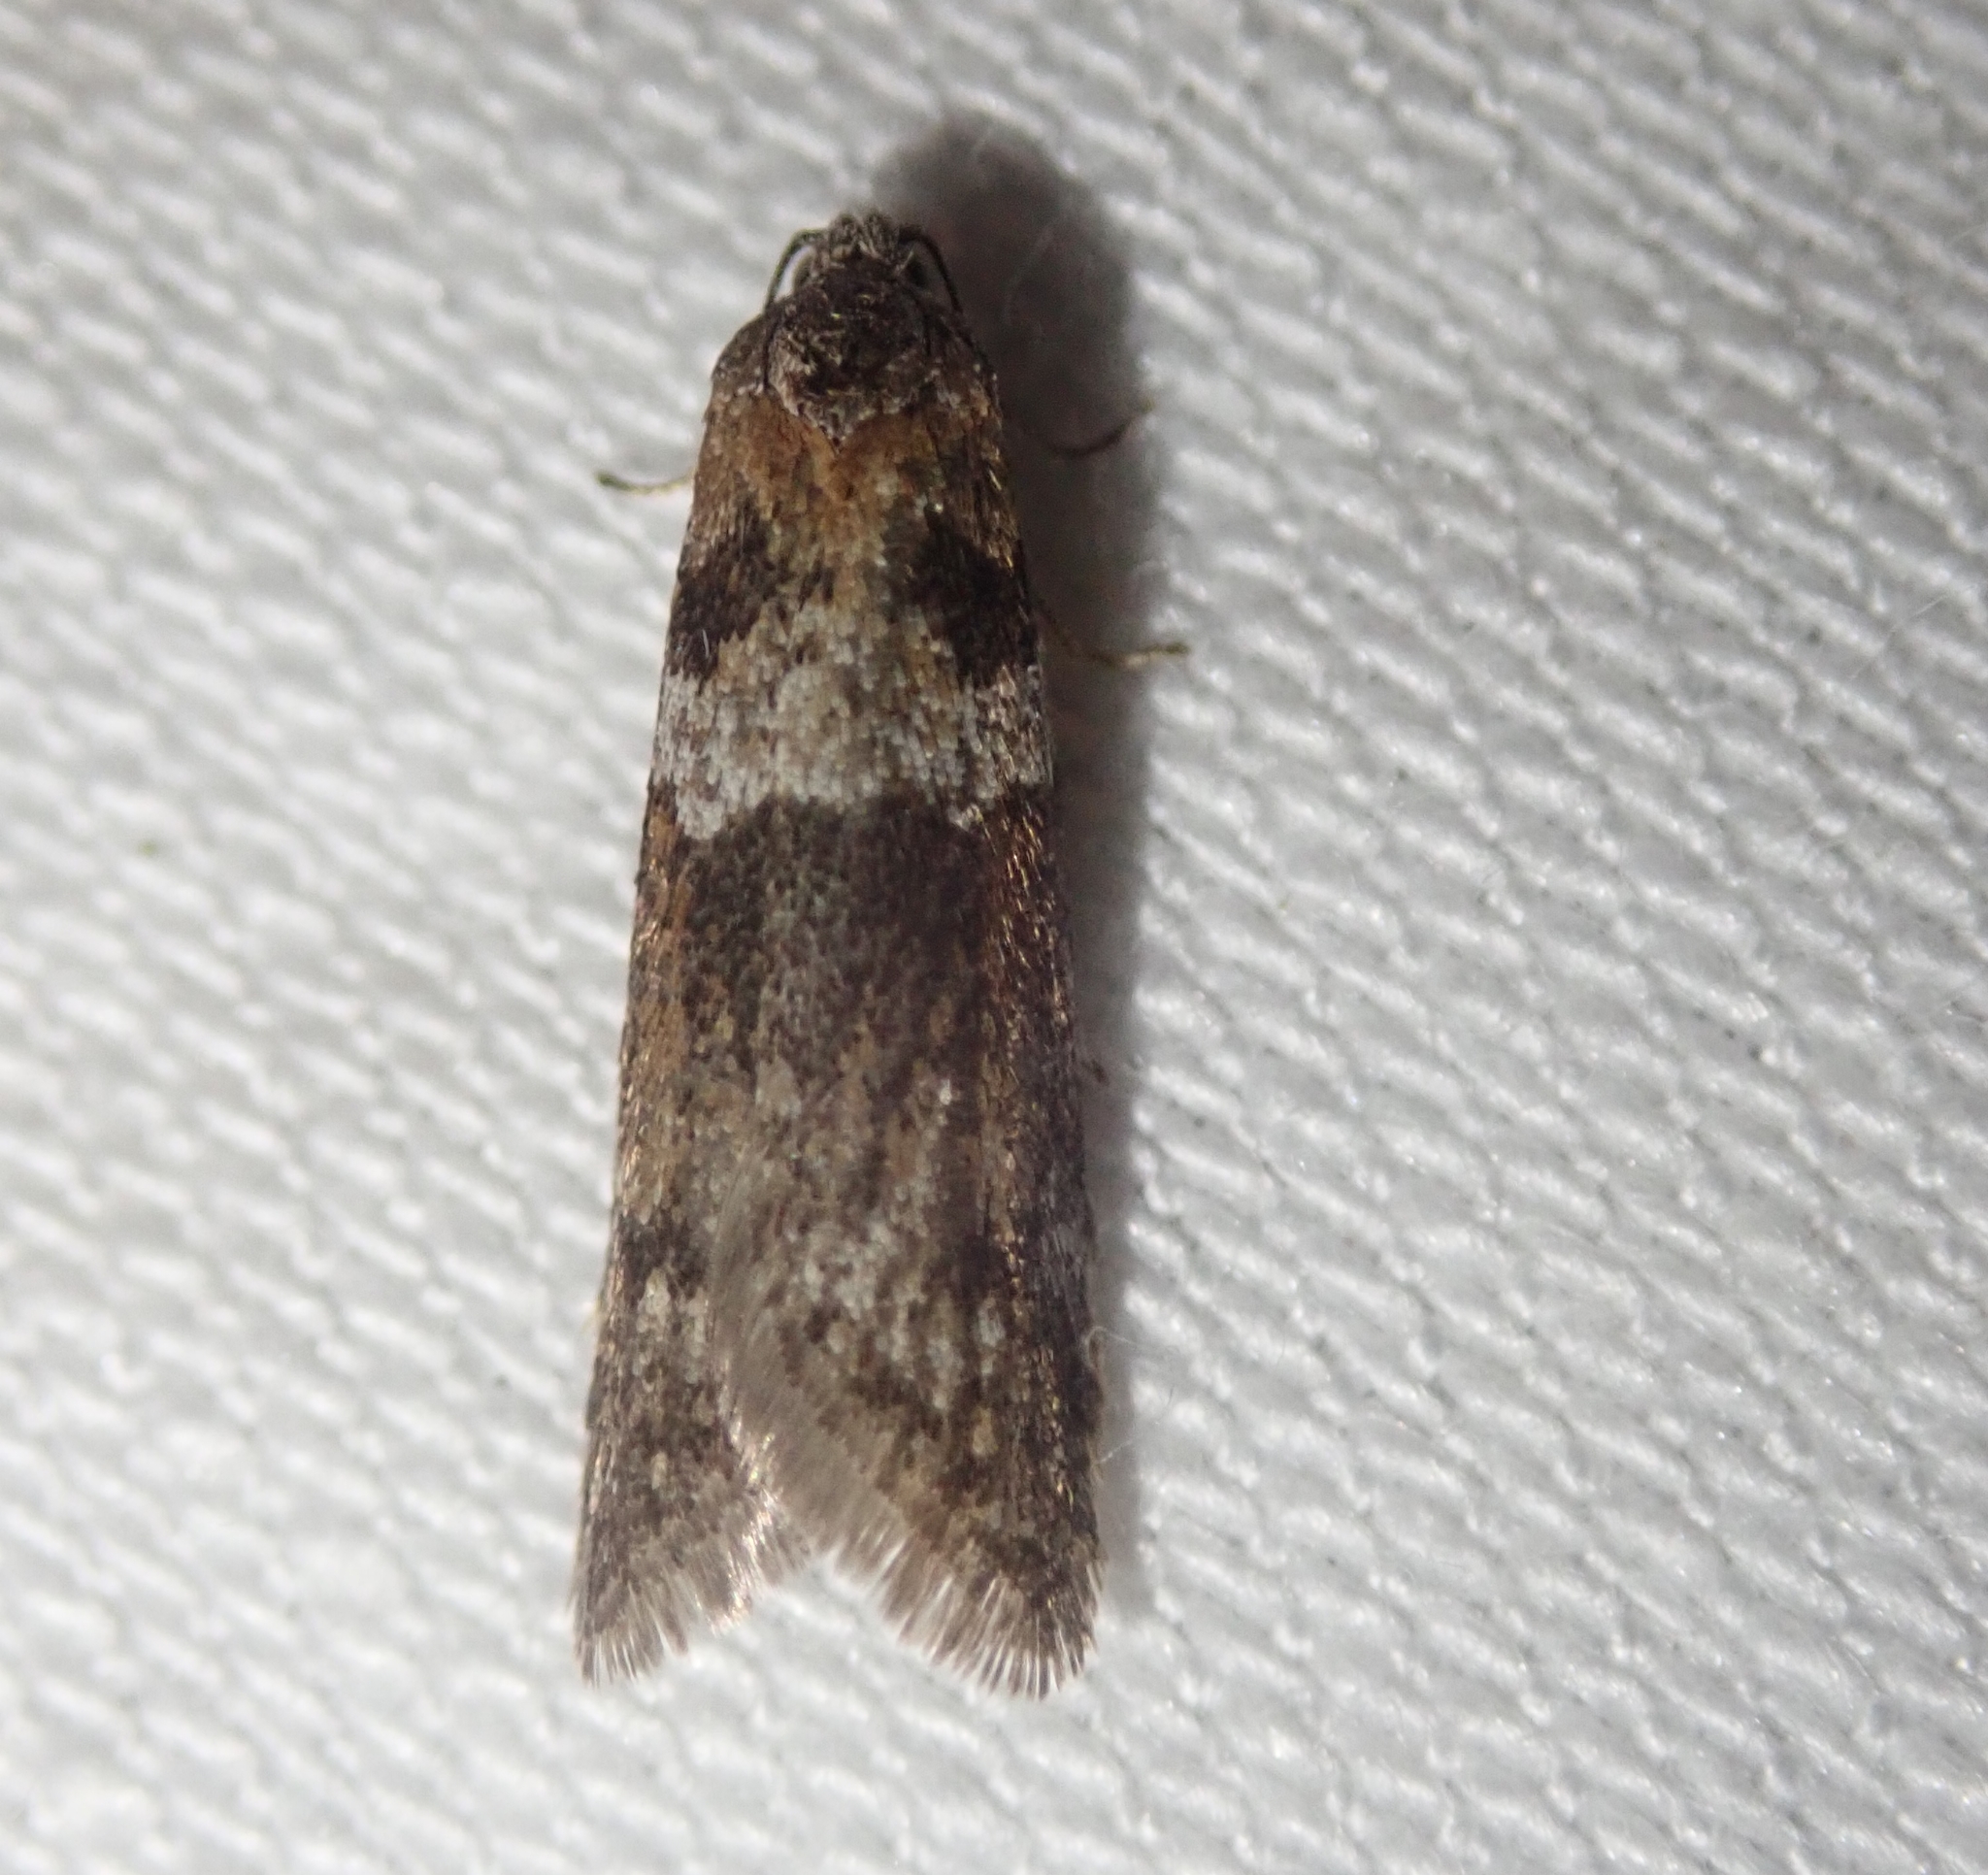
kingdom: Animalia
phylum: Arthropoda
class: Insecta
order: Lepidoptera
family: Tortricidae
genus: Tortricodes
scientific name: Tortricodes alternella
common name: Winter shade
